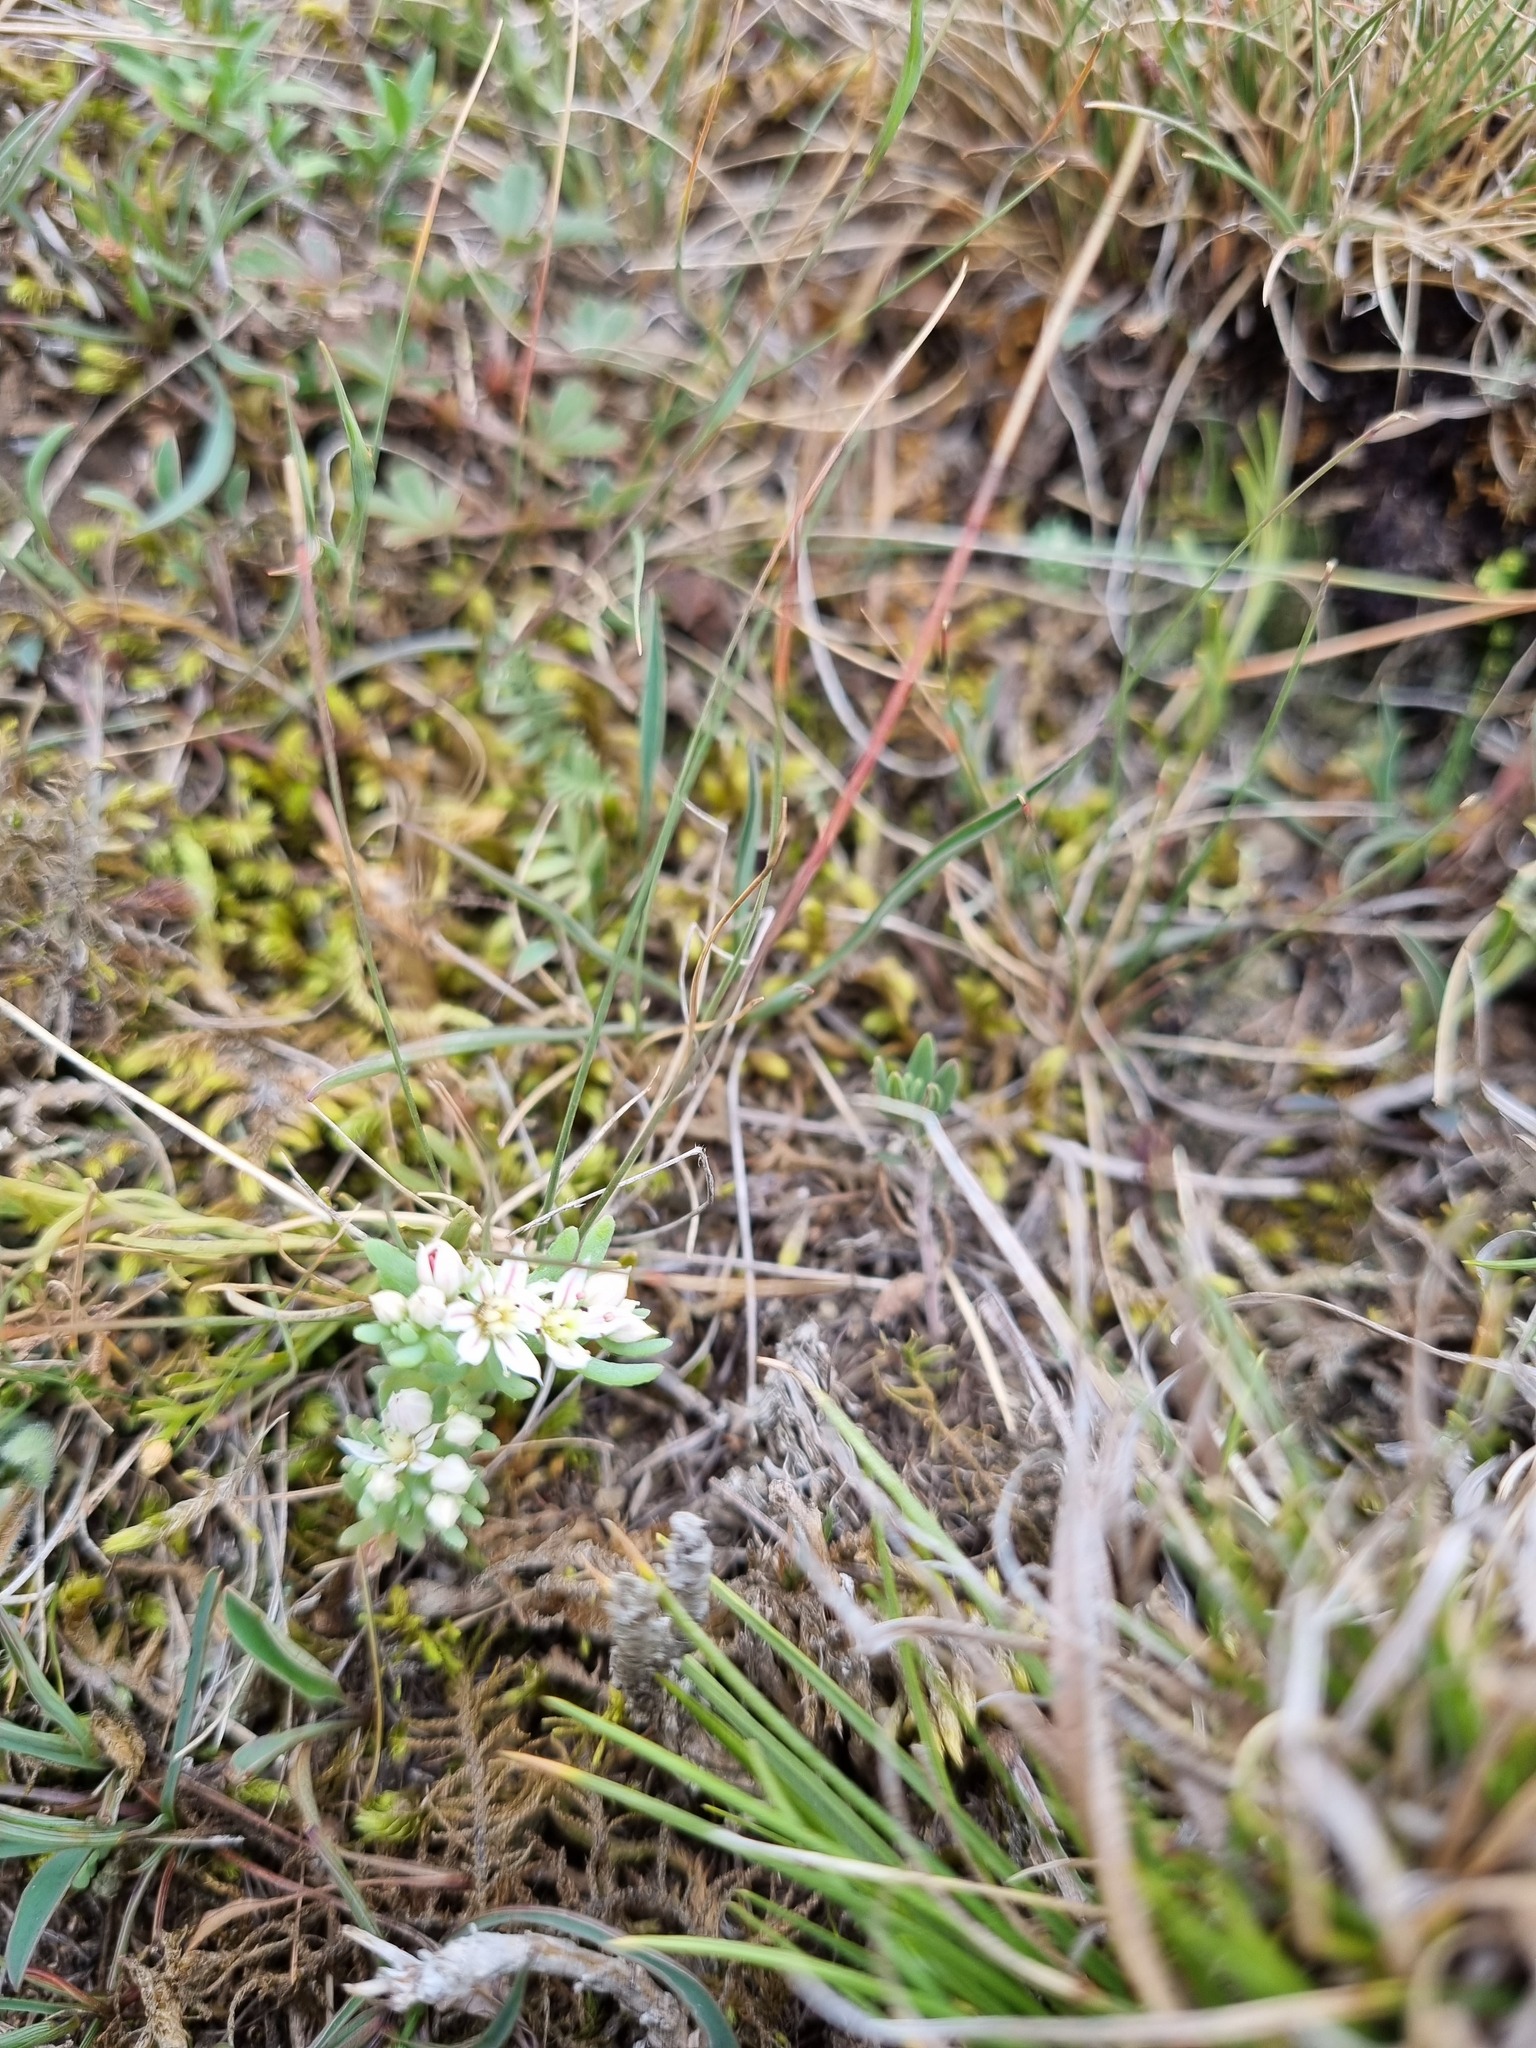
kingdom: Plantae
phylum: Tracheophyta
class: Magnoliopsida
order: Saxifragales
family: Crassulaceae
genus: Sedum
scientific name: Sedum hispanicum
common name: Spanish stonecrop
